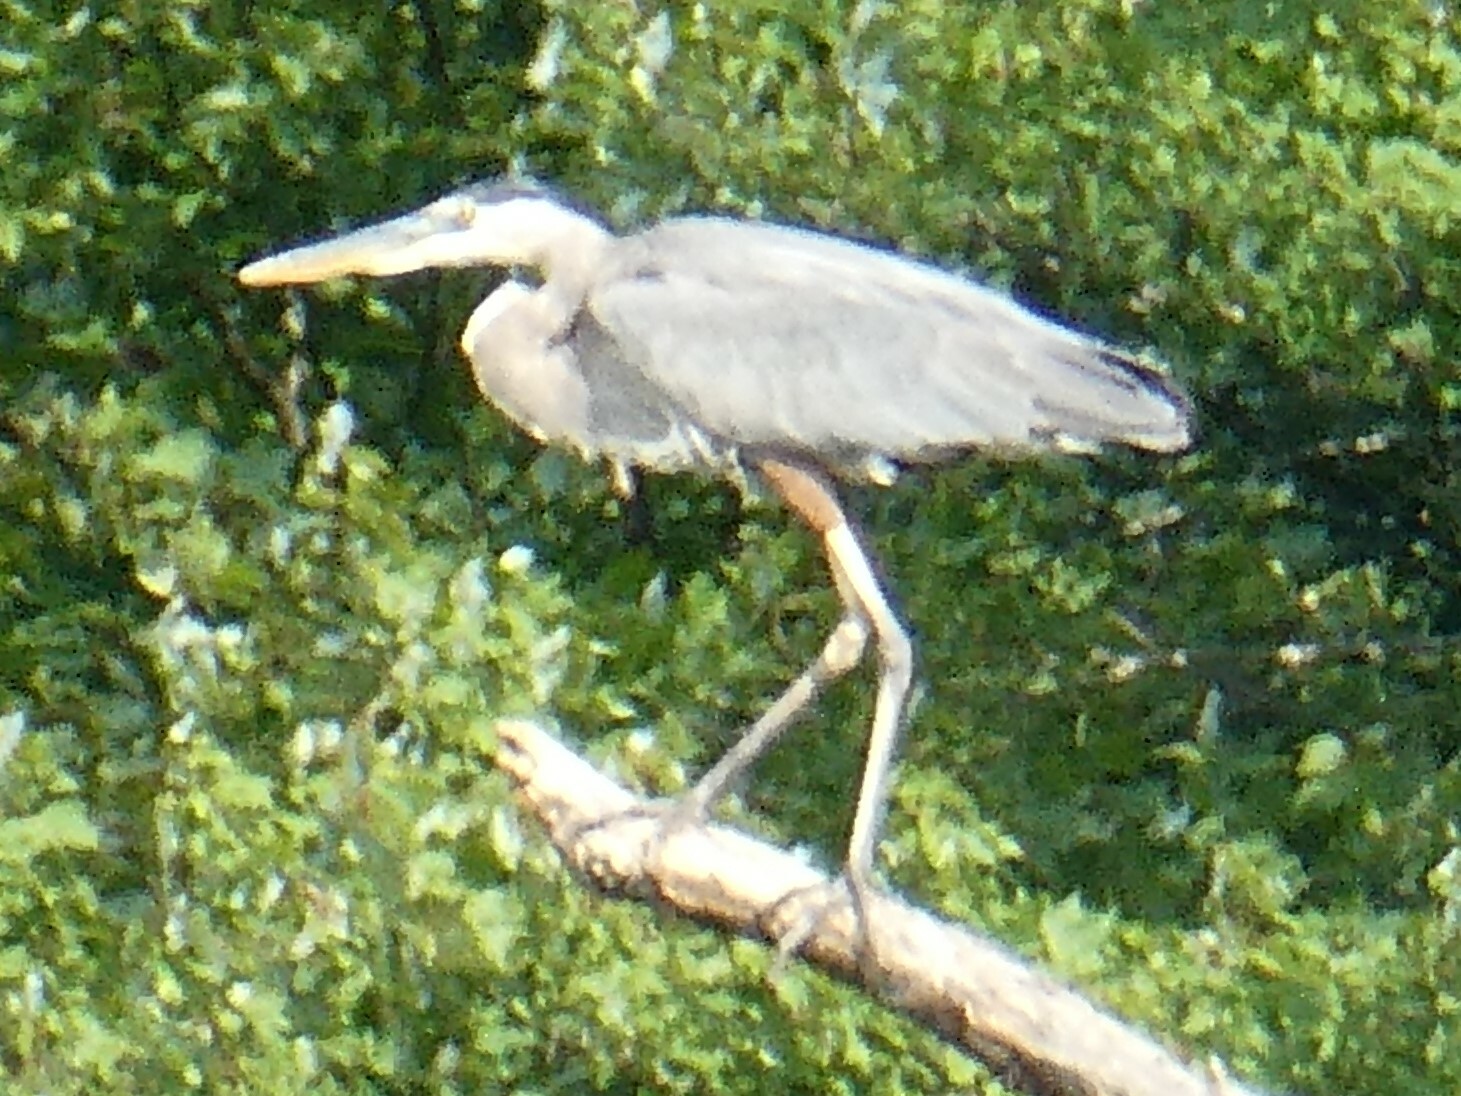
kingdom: Animalia
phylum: Chordata
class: Aves
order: Pelecaniformes
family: Ardeidae
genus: Ardea
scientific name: Ardea herodias
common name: Great blue heron
